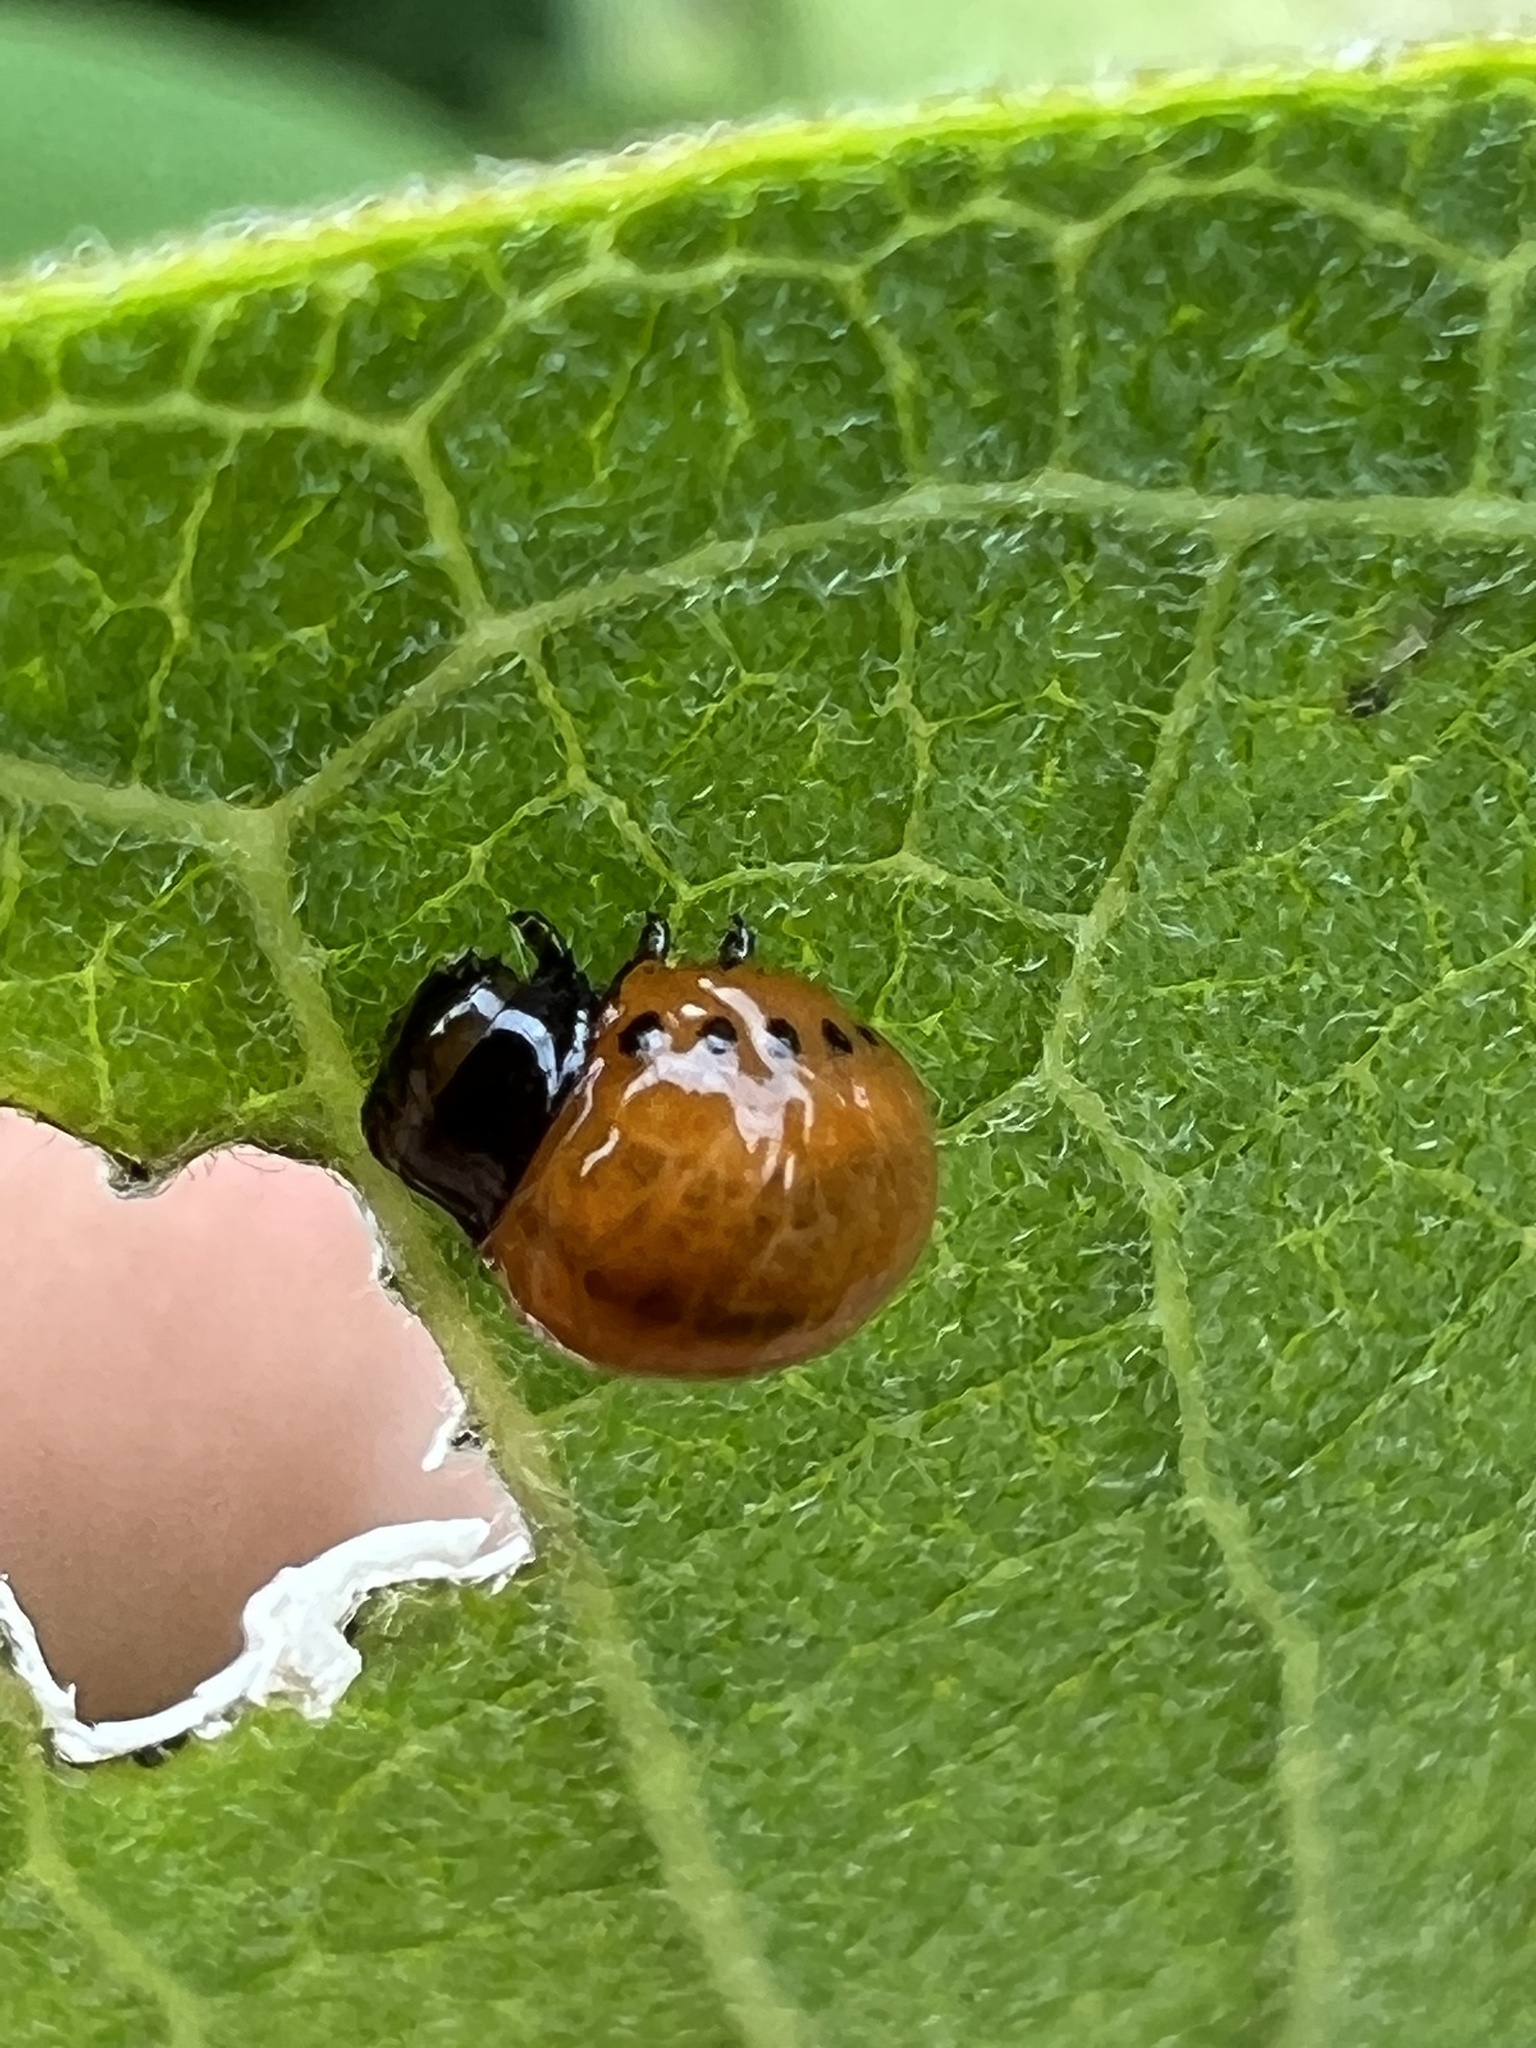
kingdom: Animalia
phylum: Arthropoda
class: Insecta
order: Coleoptera
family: Chrysomelidae
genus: Labidomera
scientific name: Labidomera clivicollis
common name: Swamp milkweed leaf beetle
